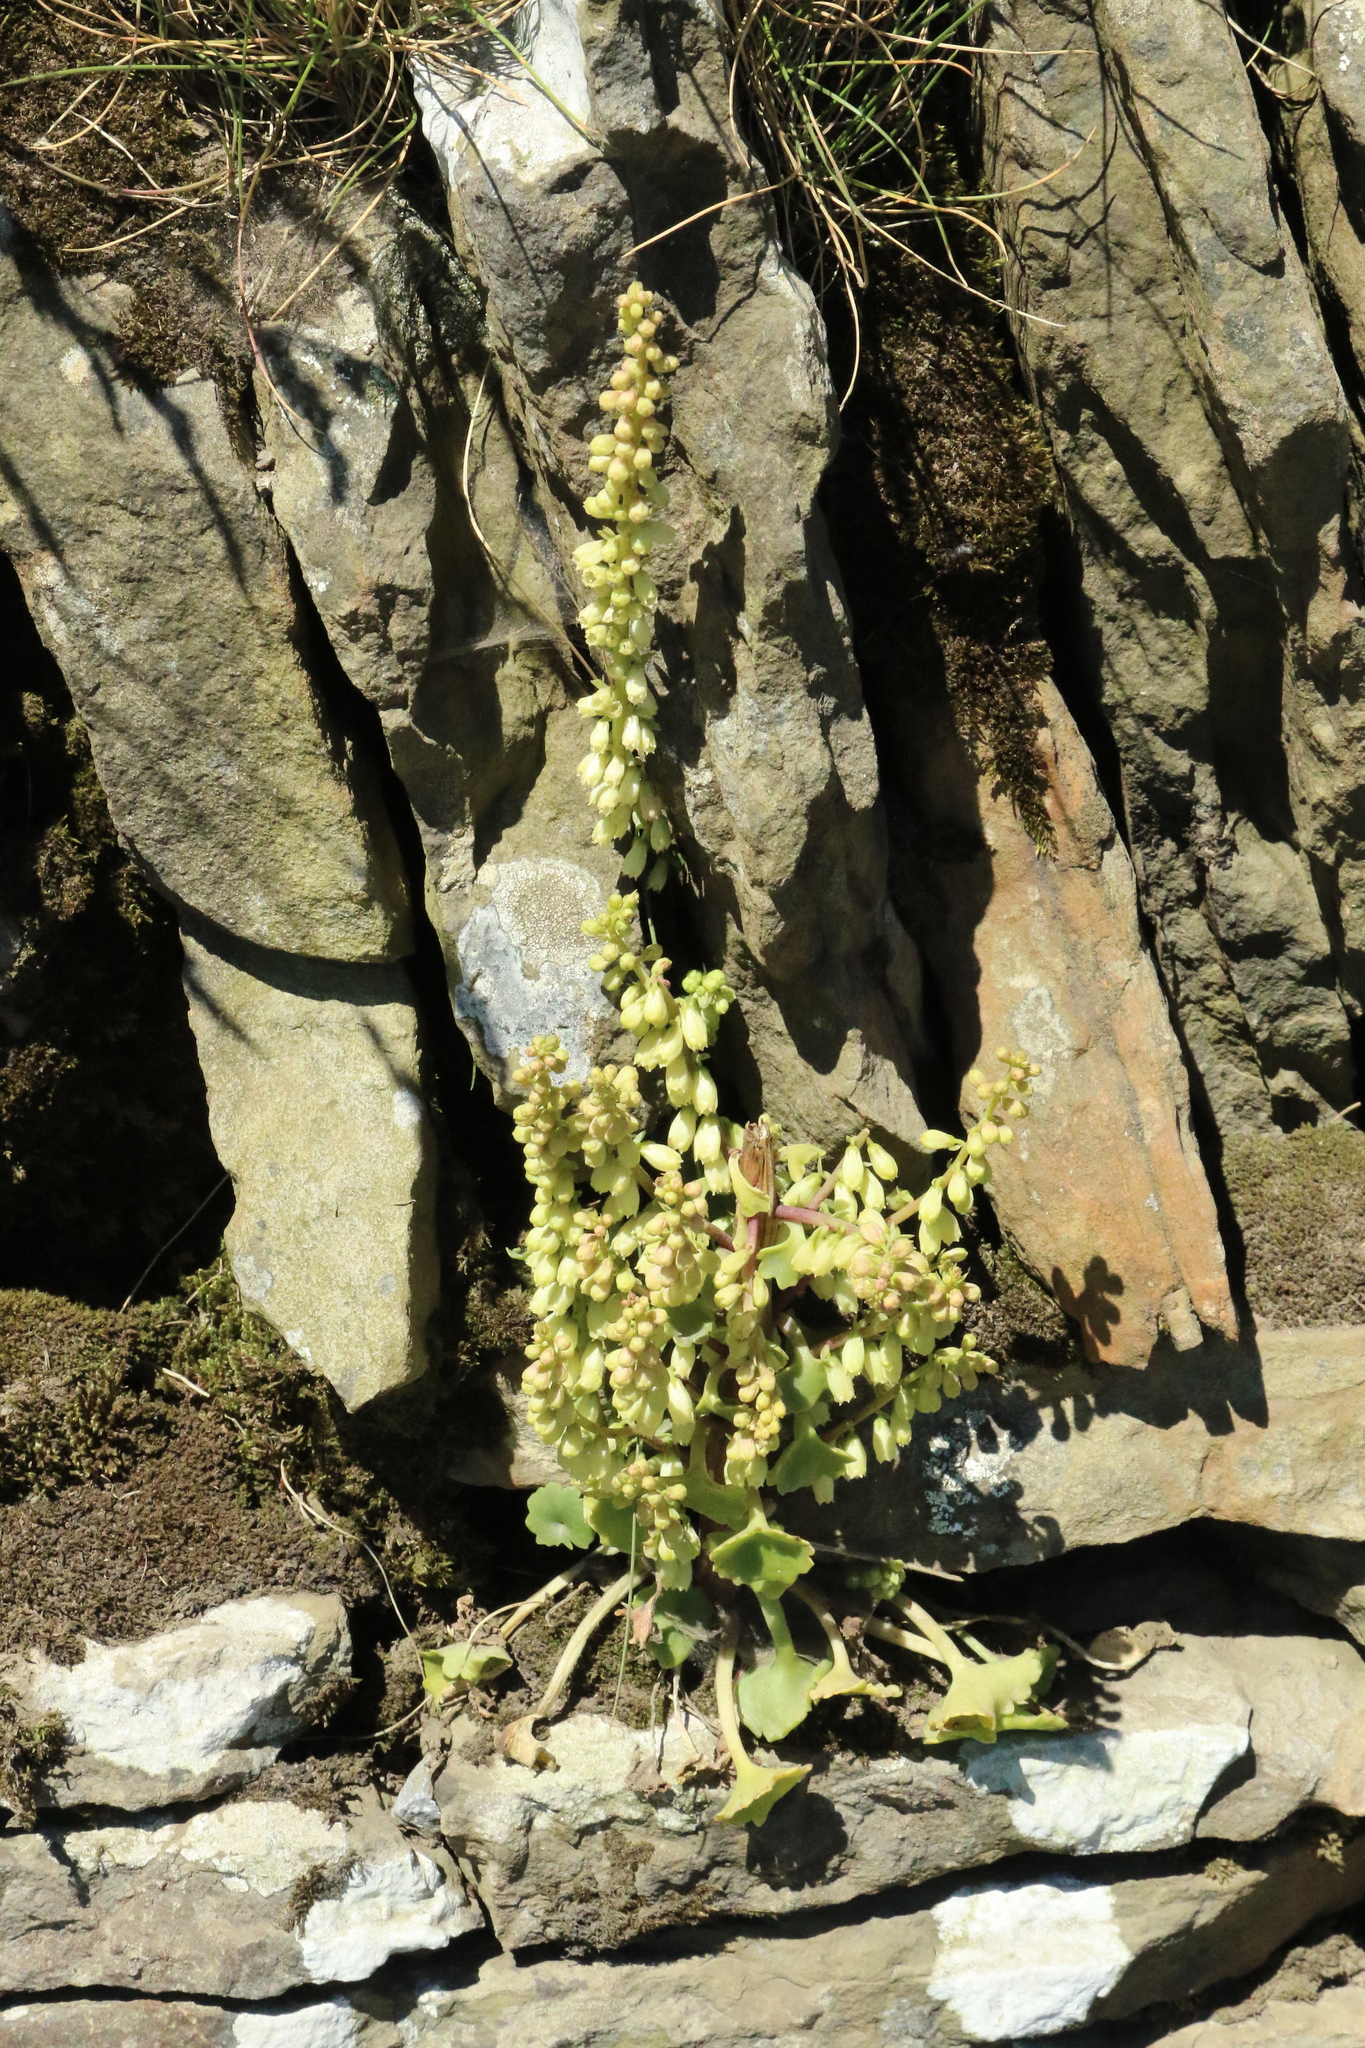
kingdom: Plantae
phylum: Tracheophyta
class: Magnoliopsida
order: Saxifragales
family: Crassulaceae
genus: Umbilicus
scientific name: Umbilicus rupestris
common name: Navelwort
